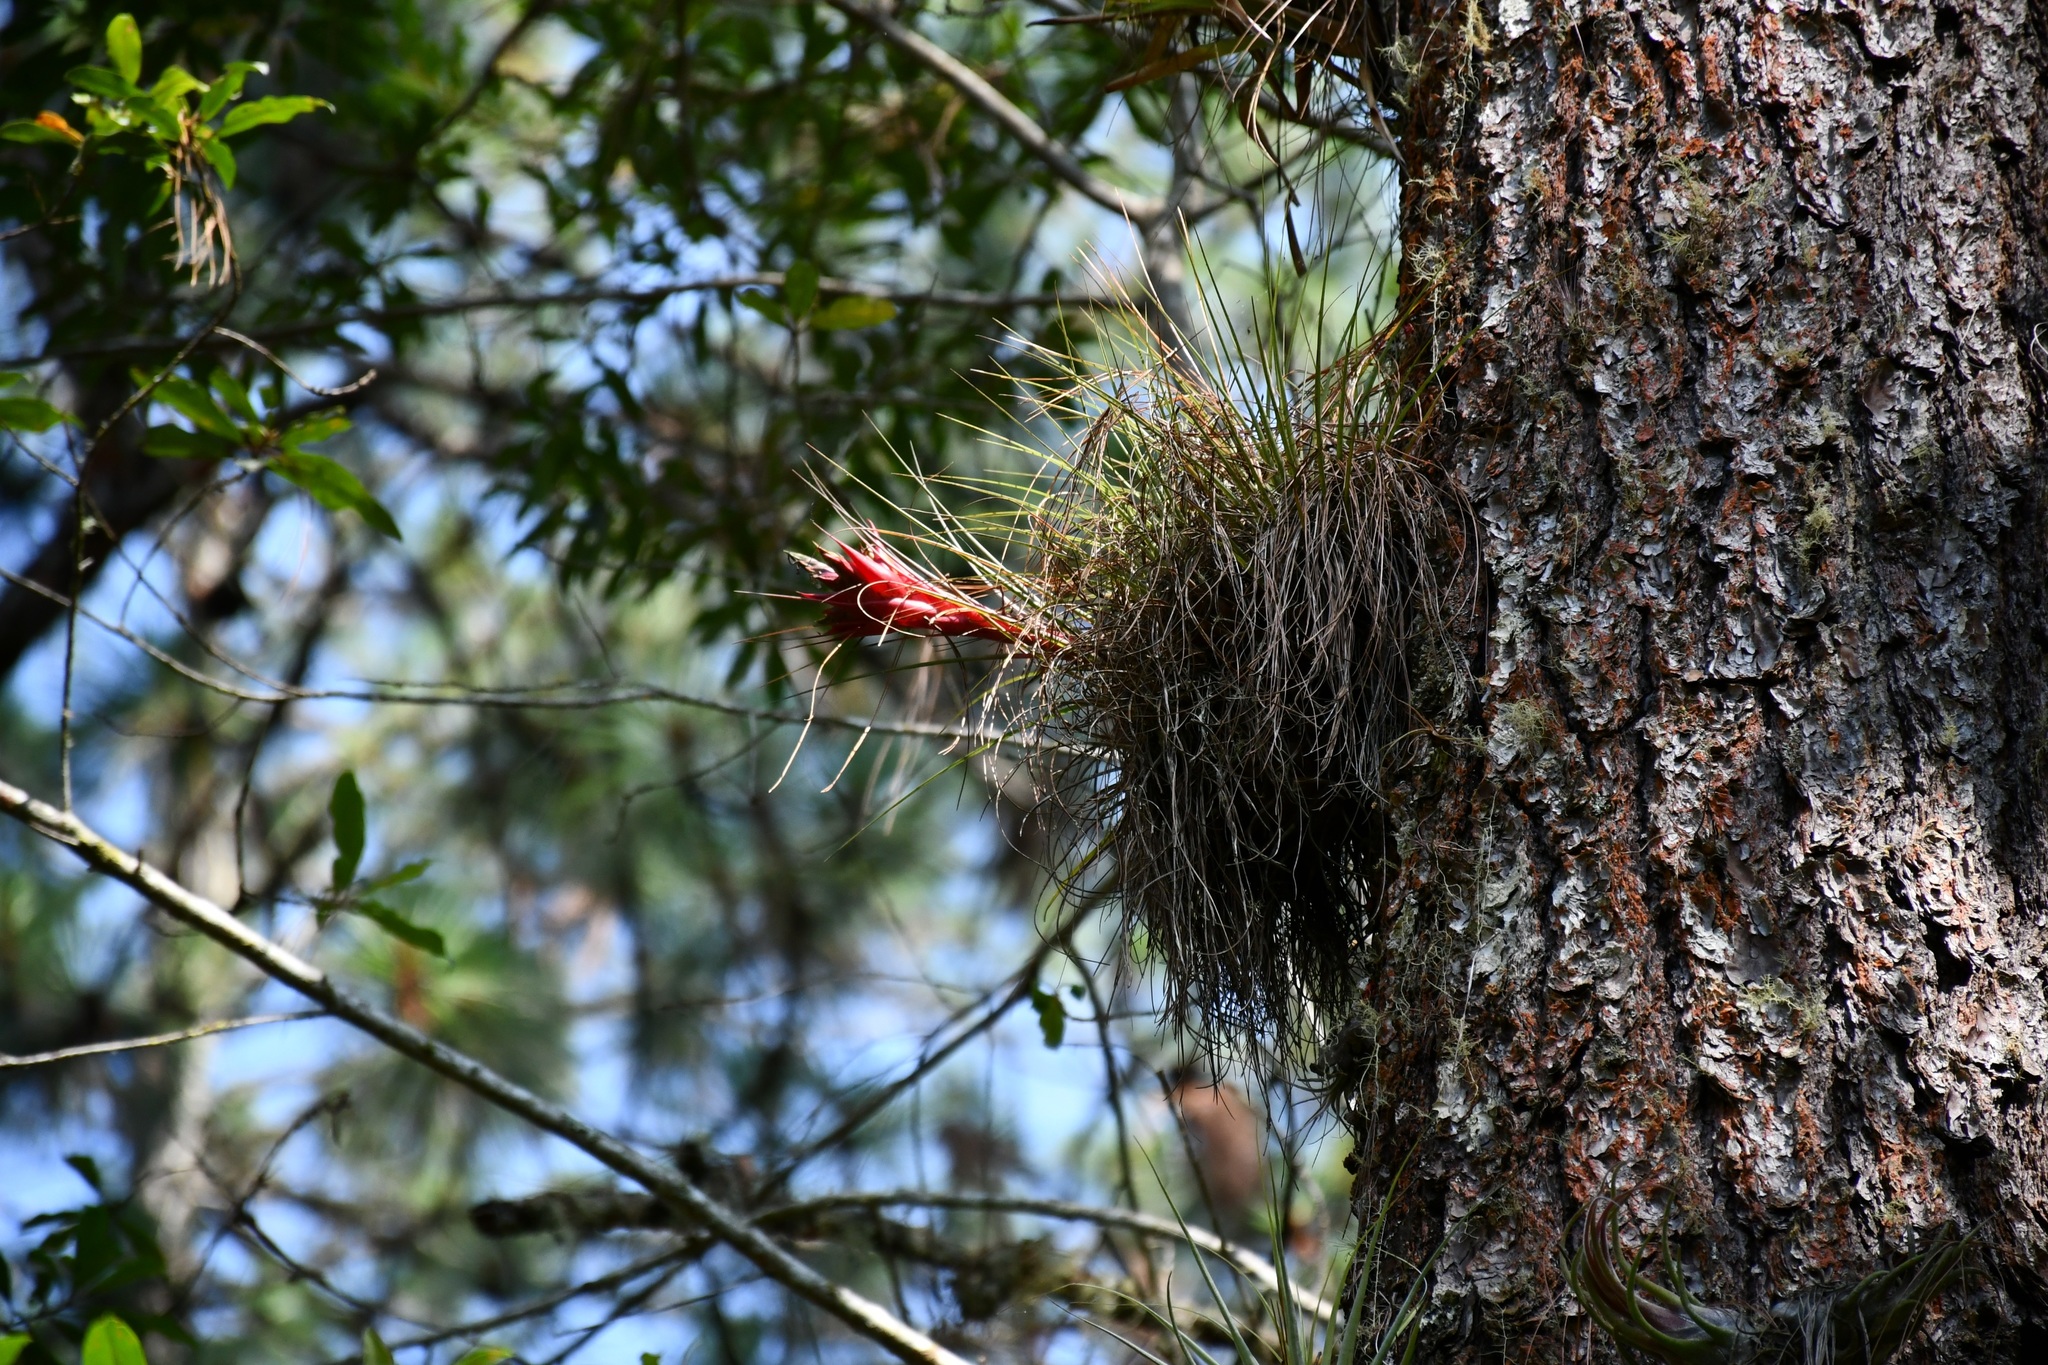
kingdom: Plantae
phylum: Tracheophyta
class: Liliopsida
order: Poales
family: Bromeliaceae
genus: Tillandsia
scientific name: Tillandsia punctulata
